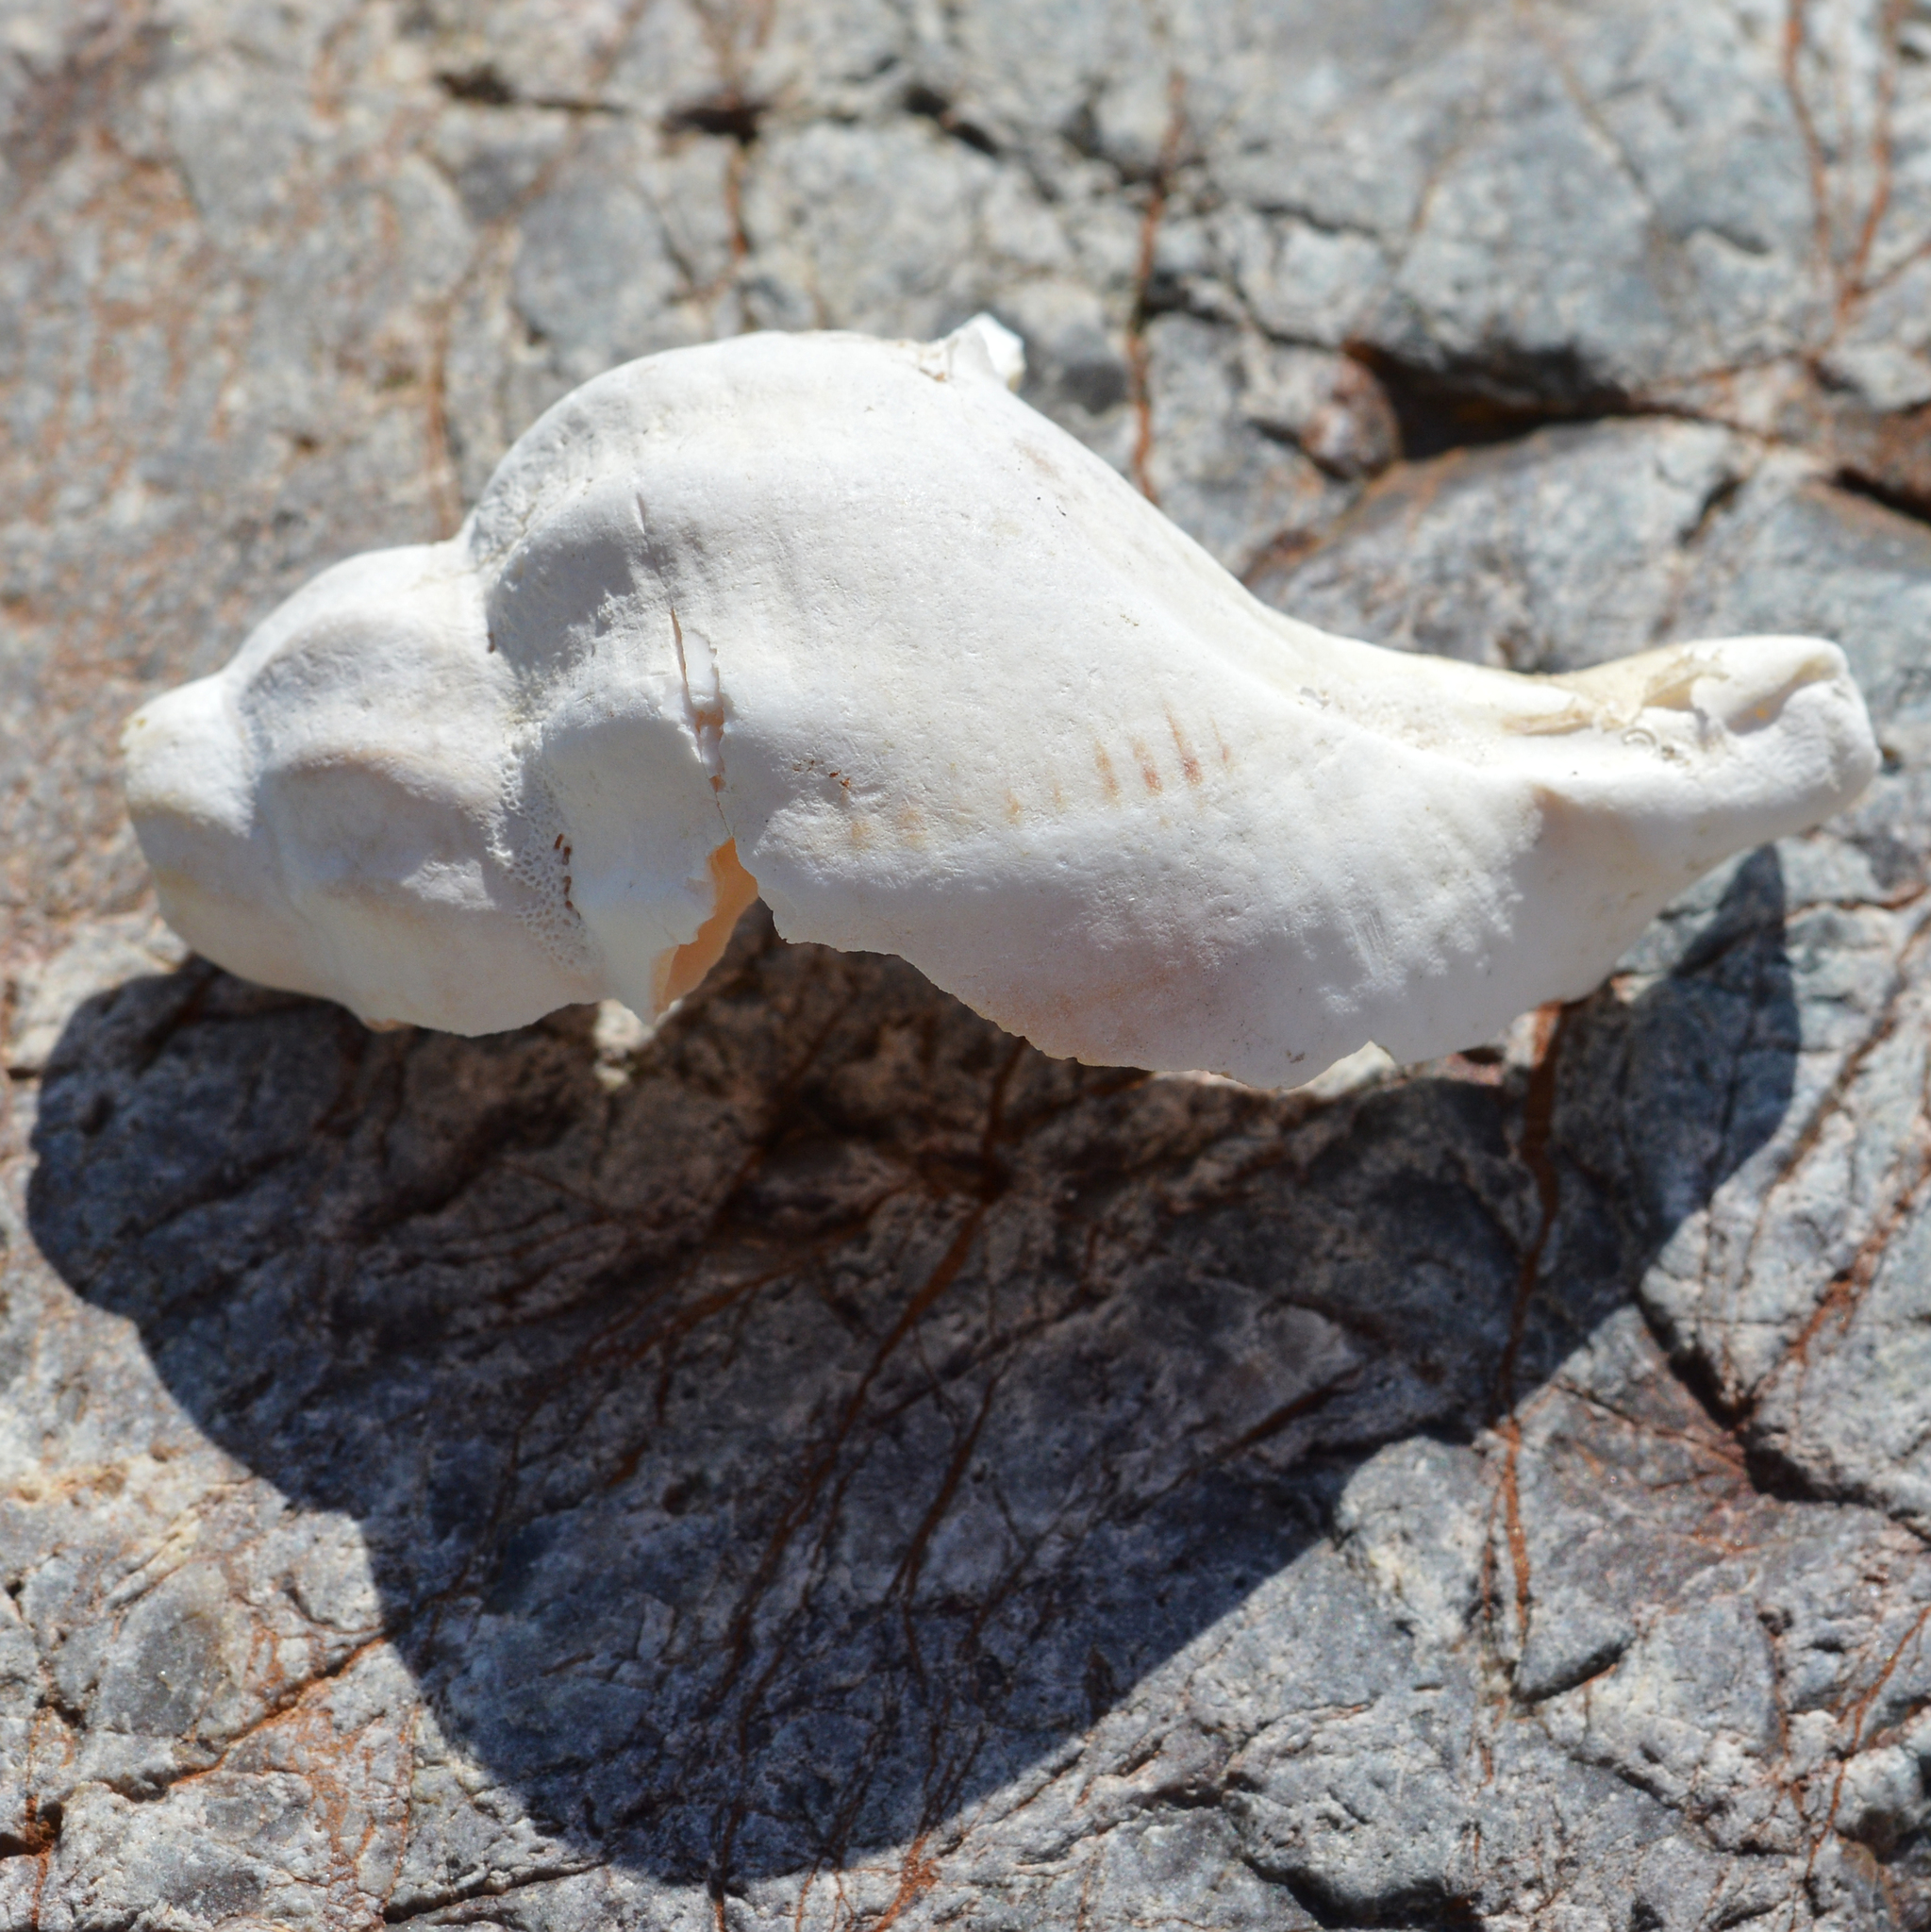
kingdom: Animalia
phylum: Mollusca
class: Gastropoda
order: Neogastropoda
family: Buccinidae
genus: Buccinum
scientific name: Buccinum undatum
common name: Common whelk
